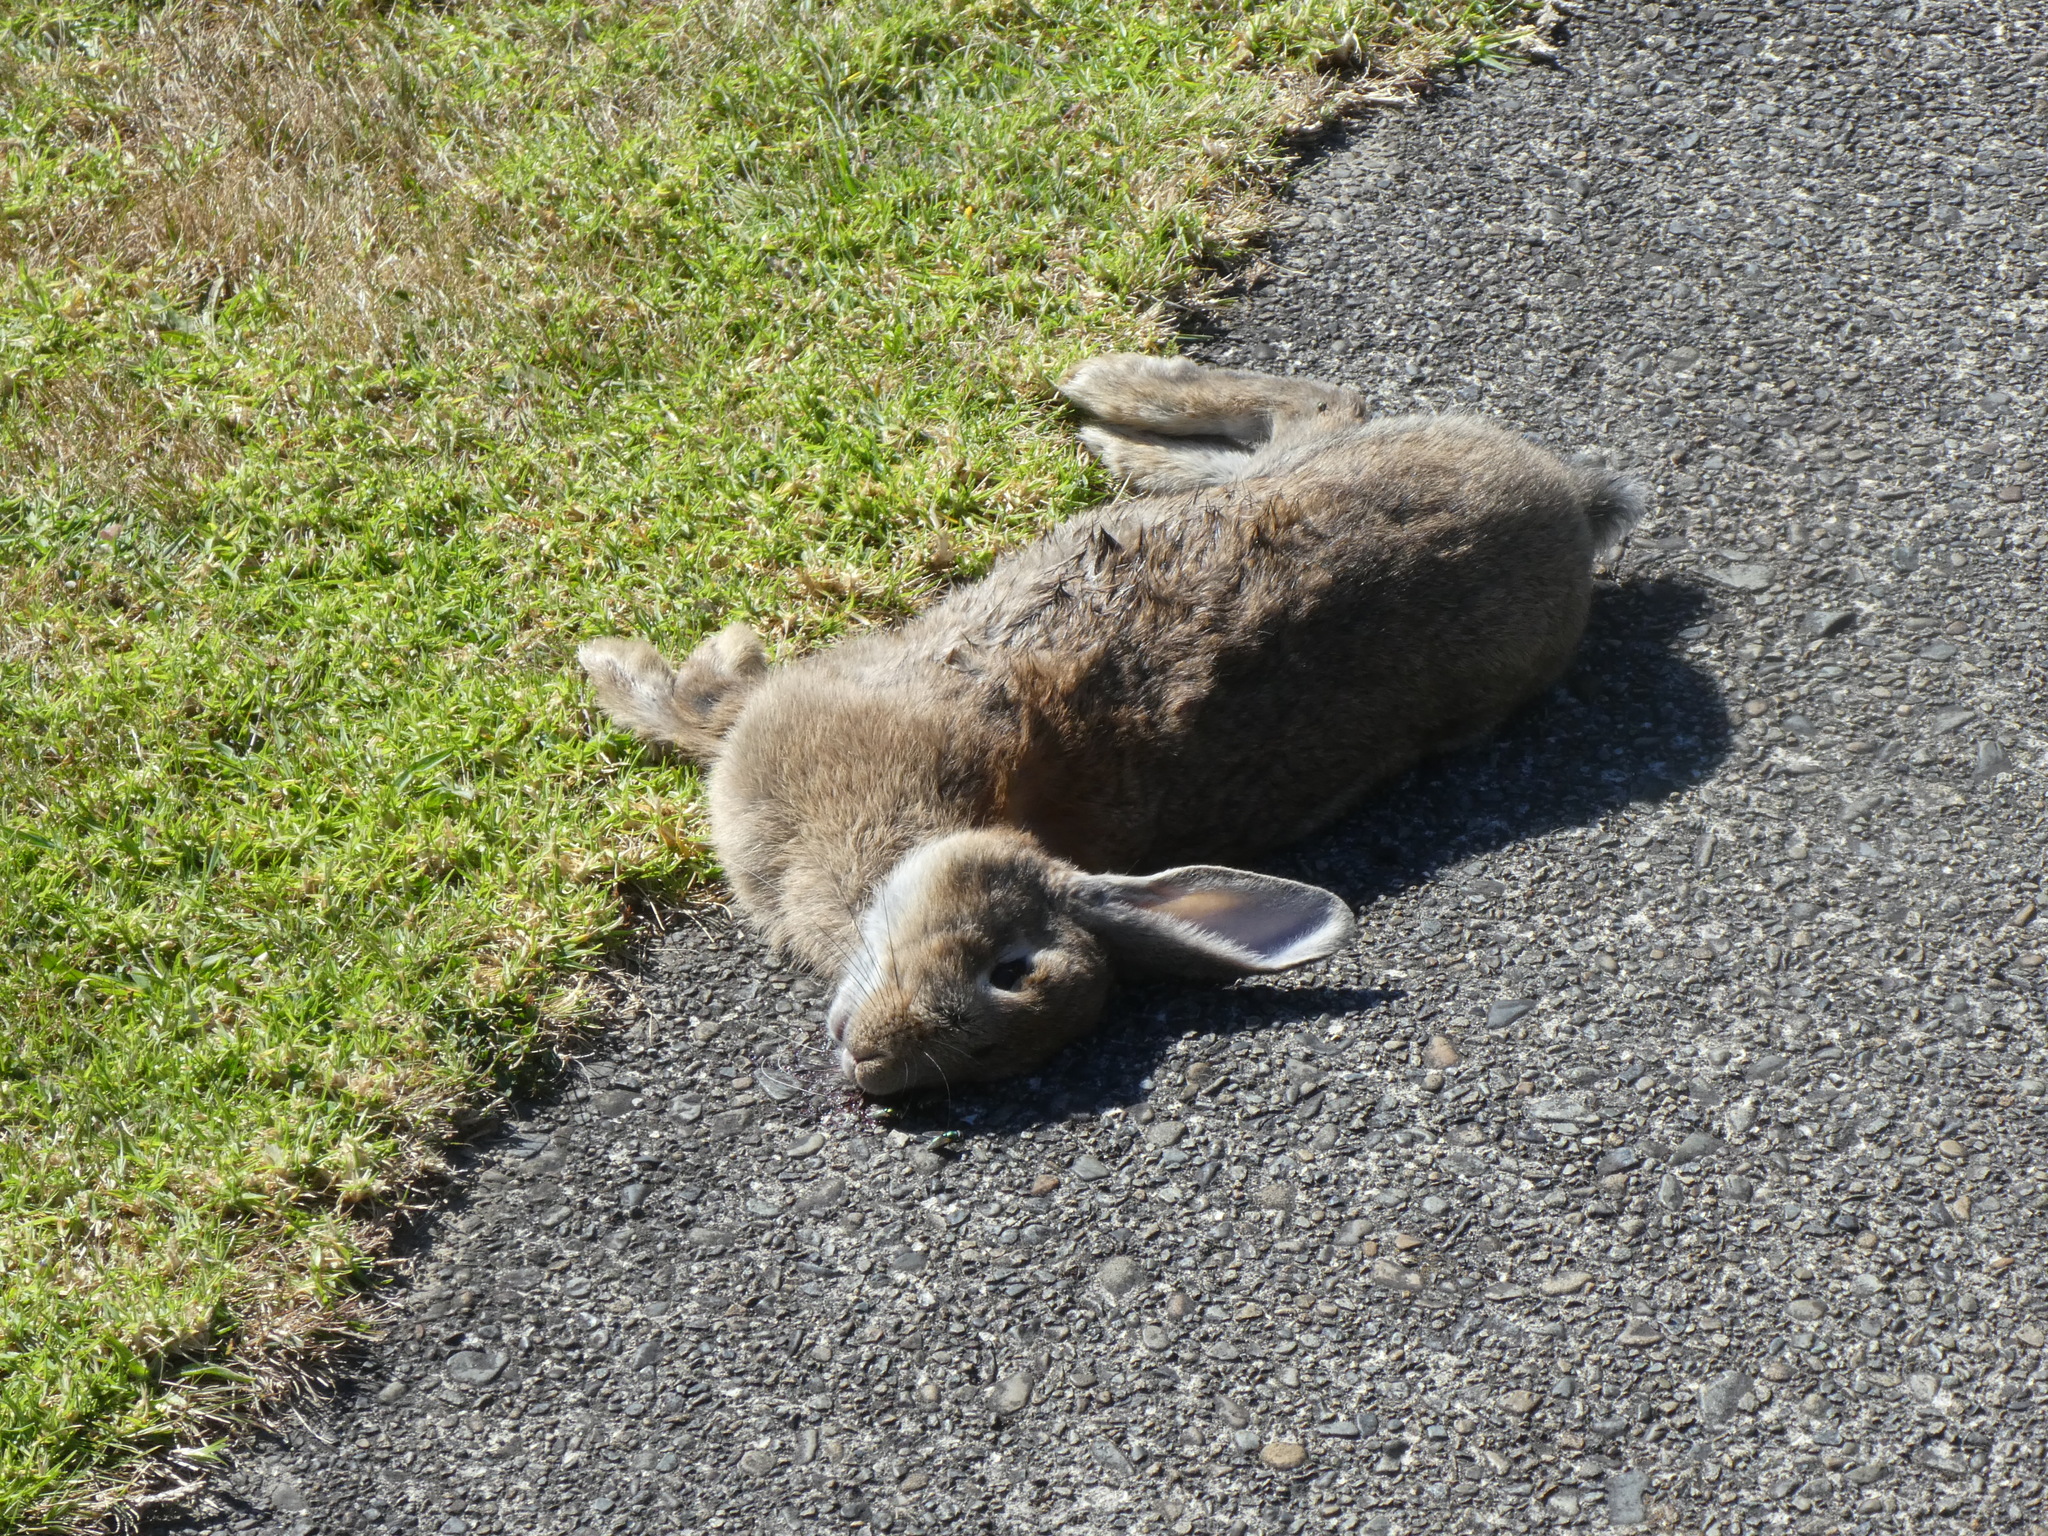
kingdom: Animalia
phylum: Chordata
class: Mammalia
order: Lagomorpha
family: Leporidae
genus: Oryctolagus
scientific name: Oryctolagus cuniculus
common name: European rabbit
